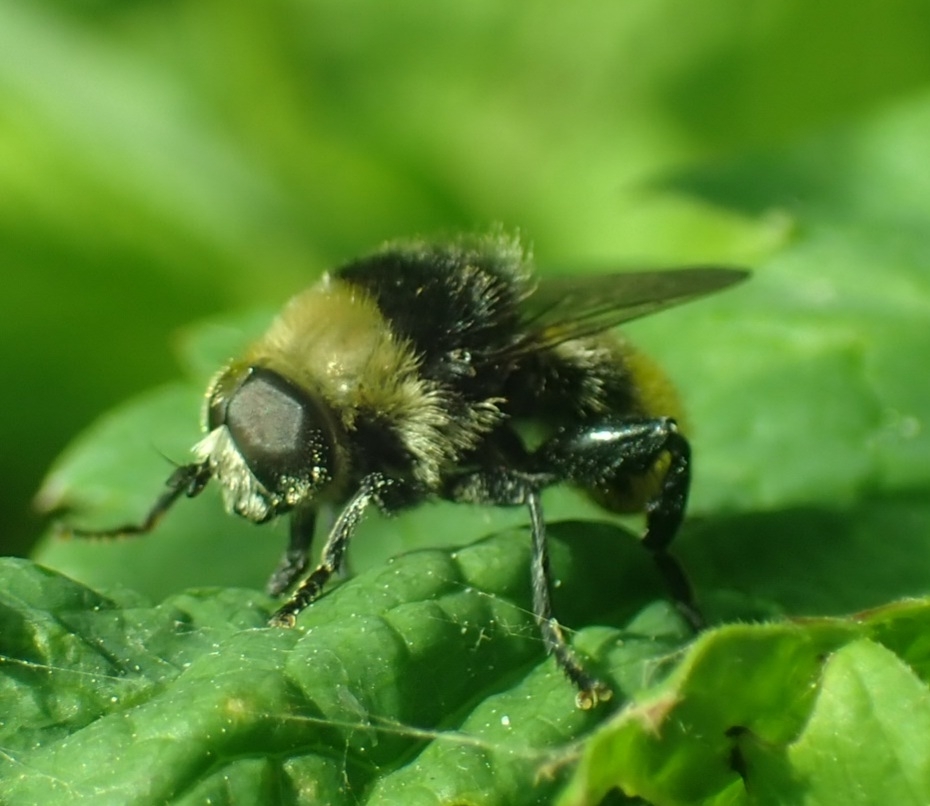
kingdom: Animalia
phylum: Arthropoda
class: Insecta
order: Diptera
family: Syrphidae
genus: Merodon
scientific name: Merodon equestris
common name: Greater bulb-fly
